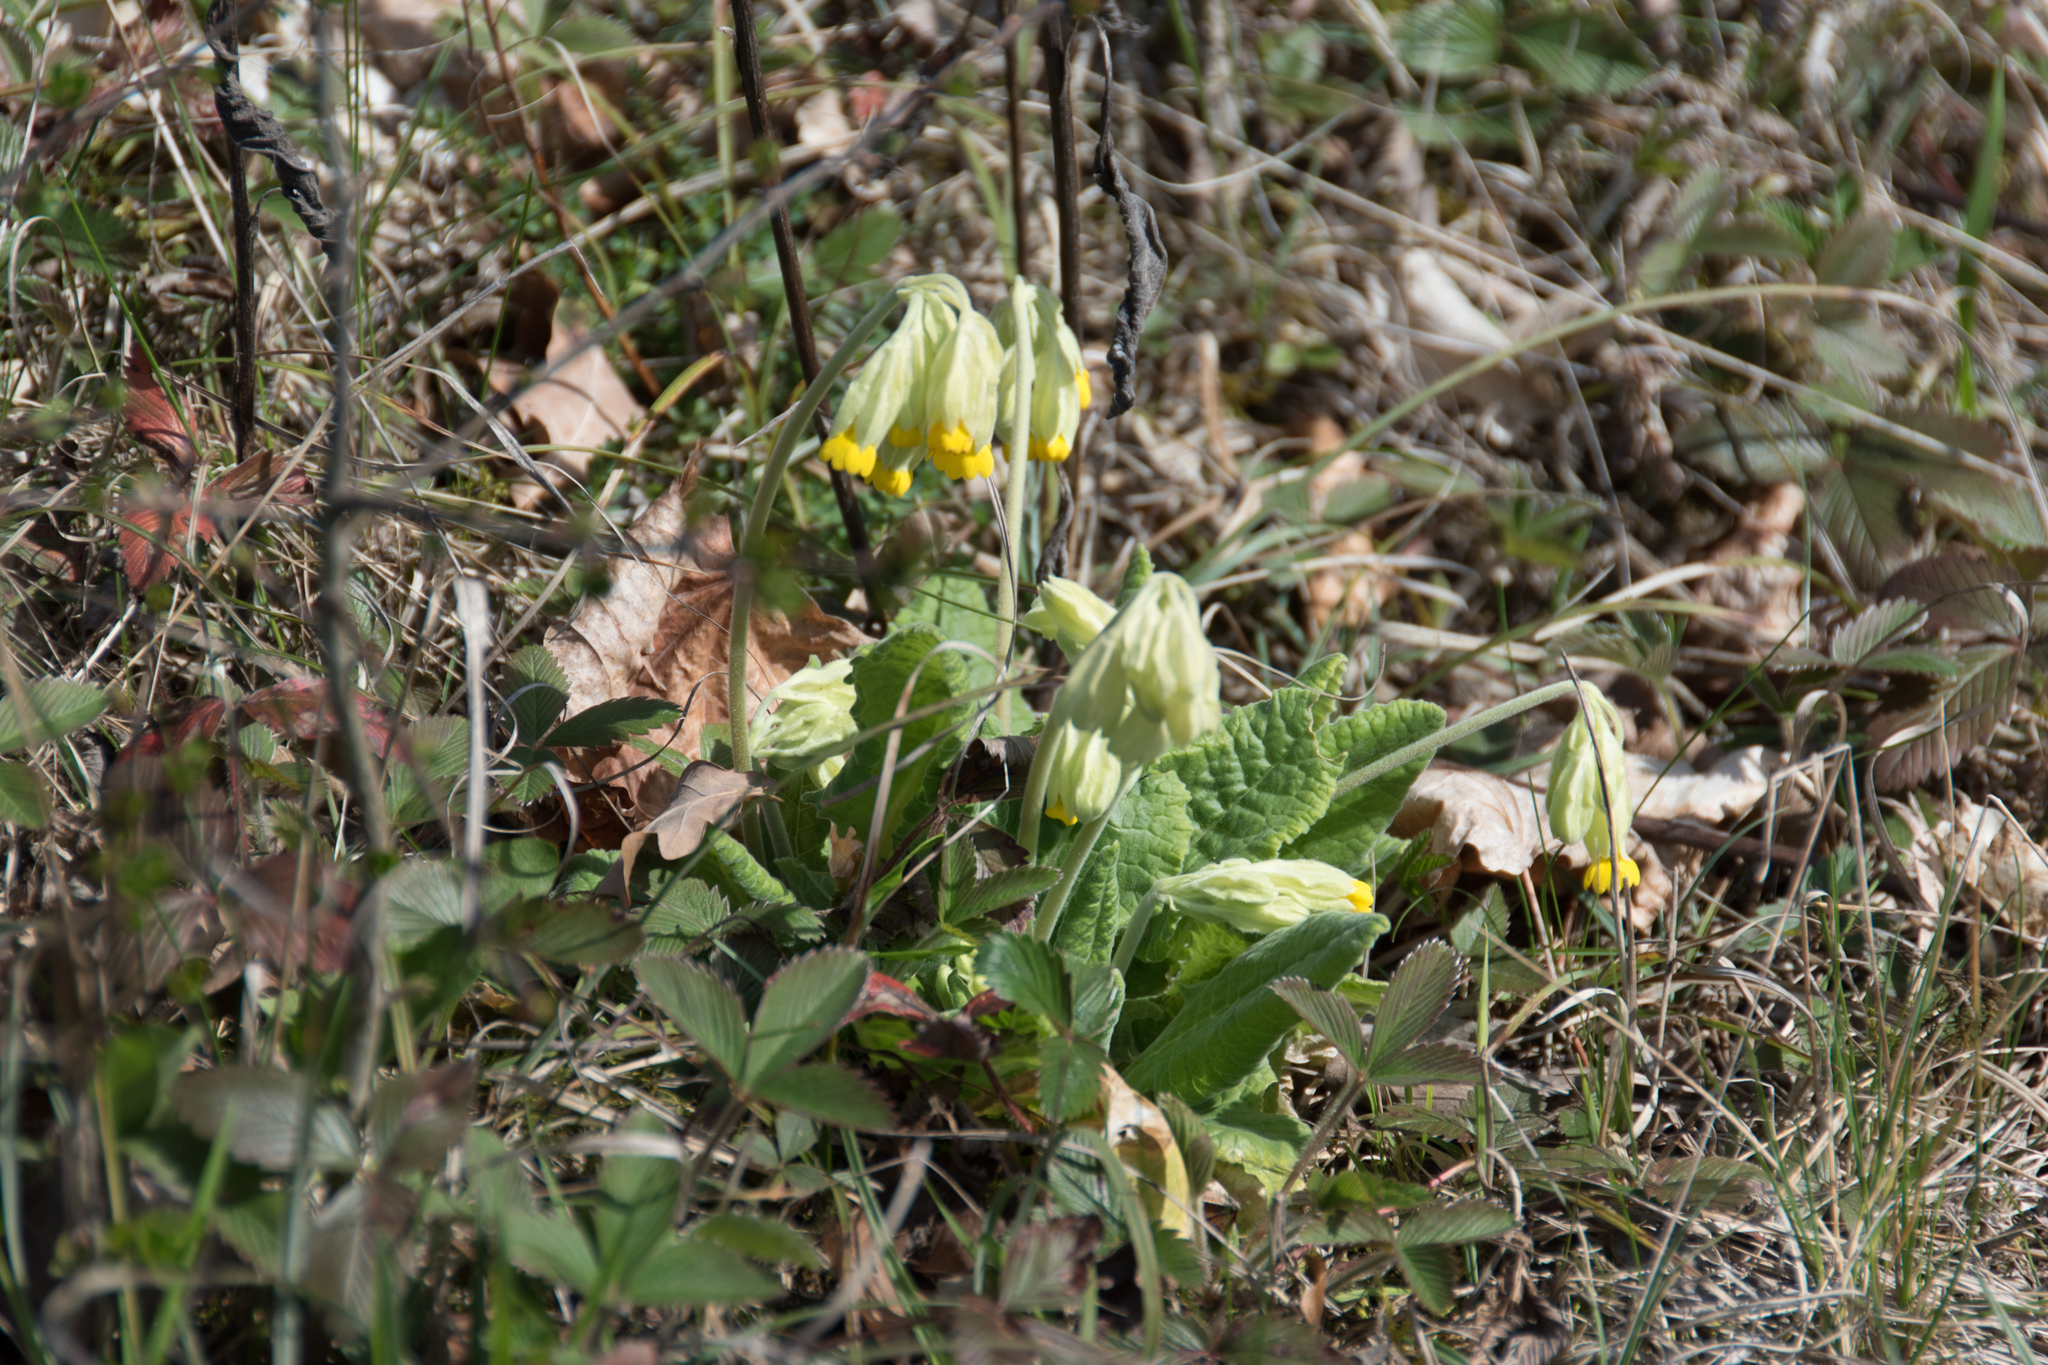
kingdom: Plantae
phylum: Tracheophyta
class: Magnoliopsida
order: Ericales
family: Primulaceae
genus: Primula
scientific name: Primula veris
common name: Cowslip
